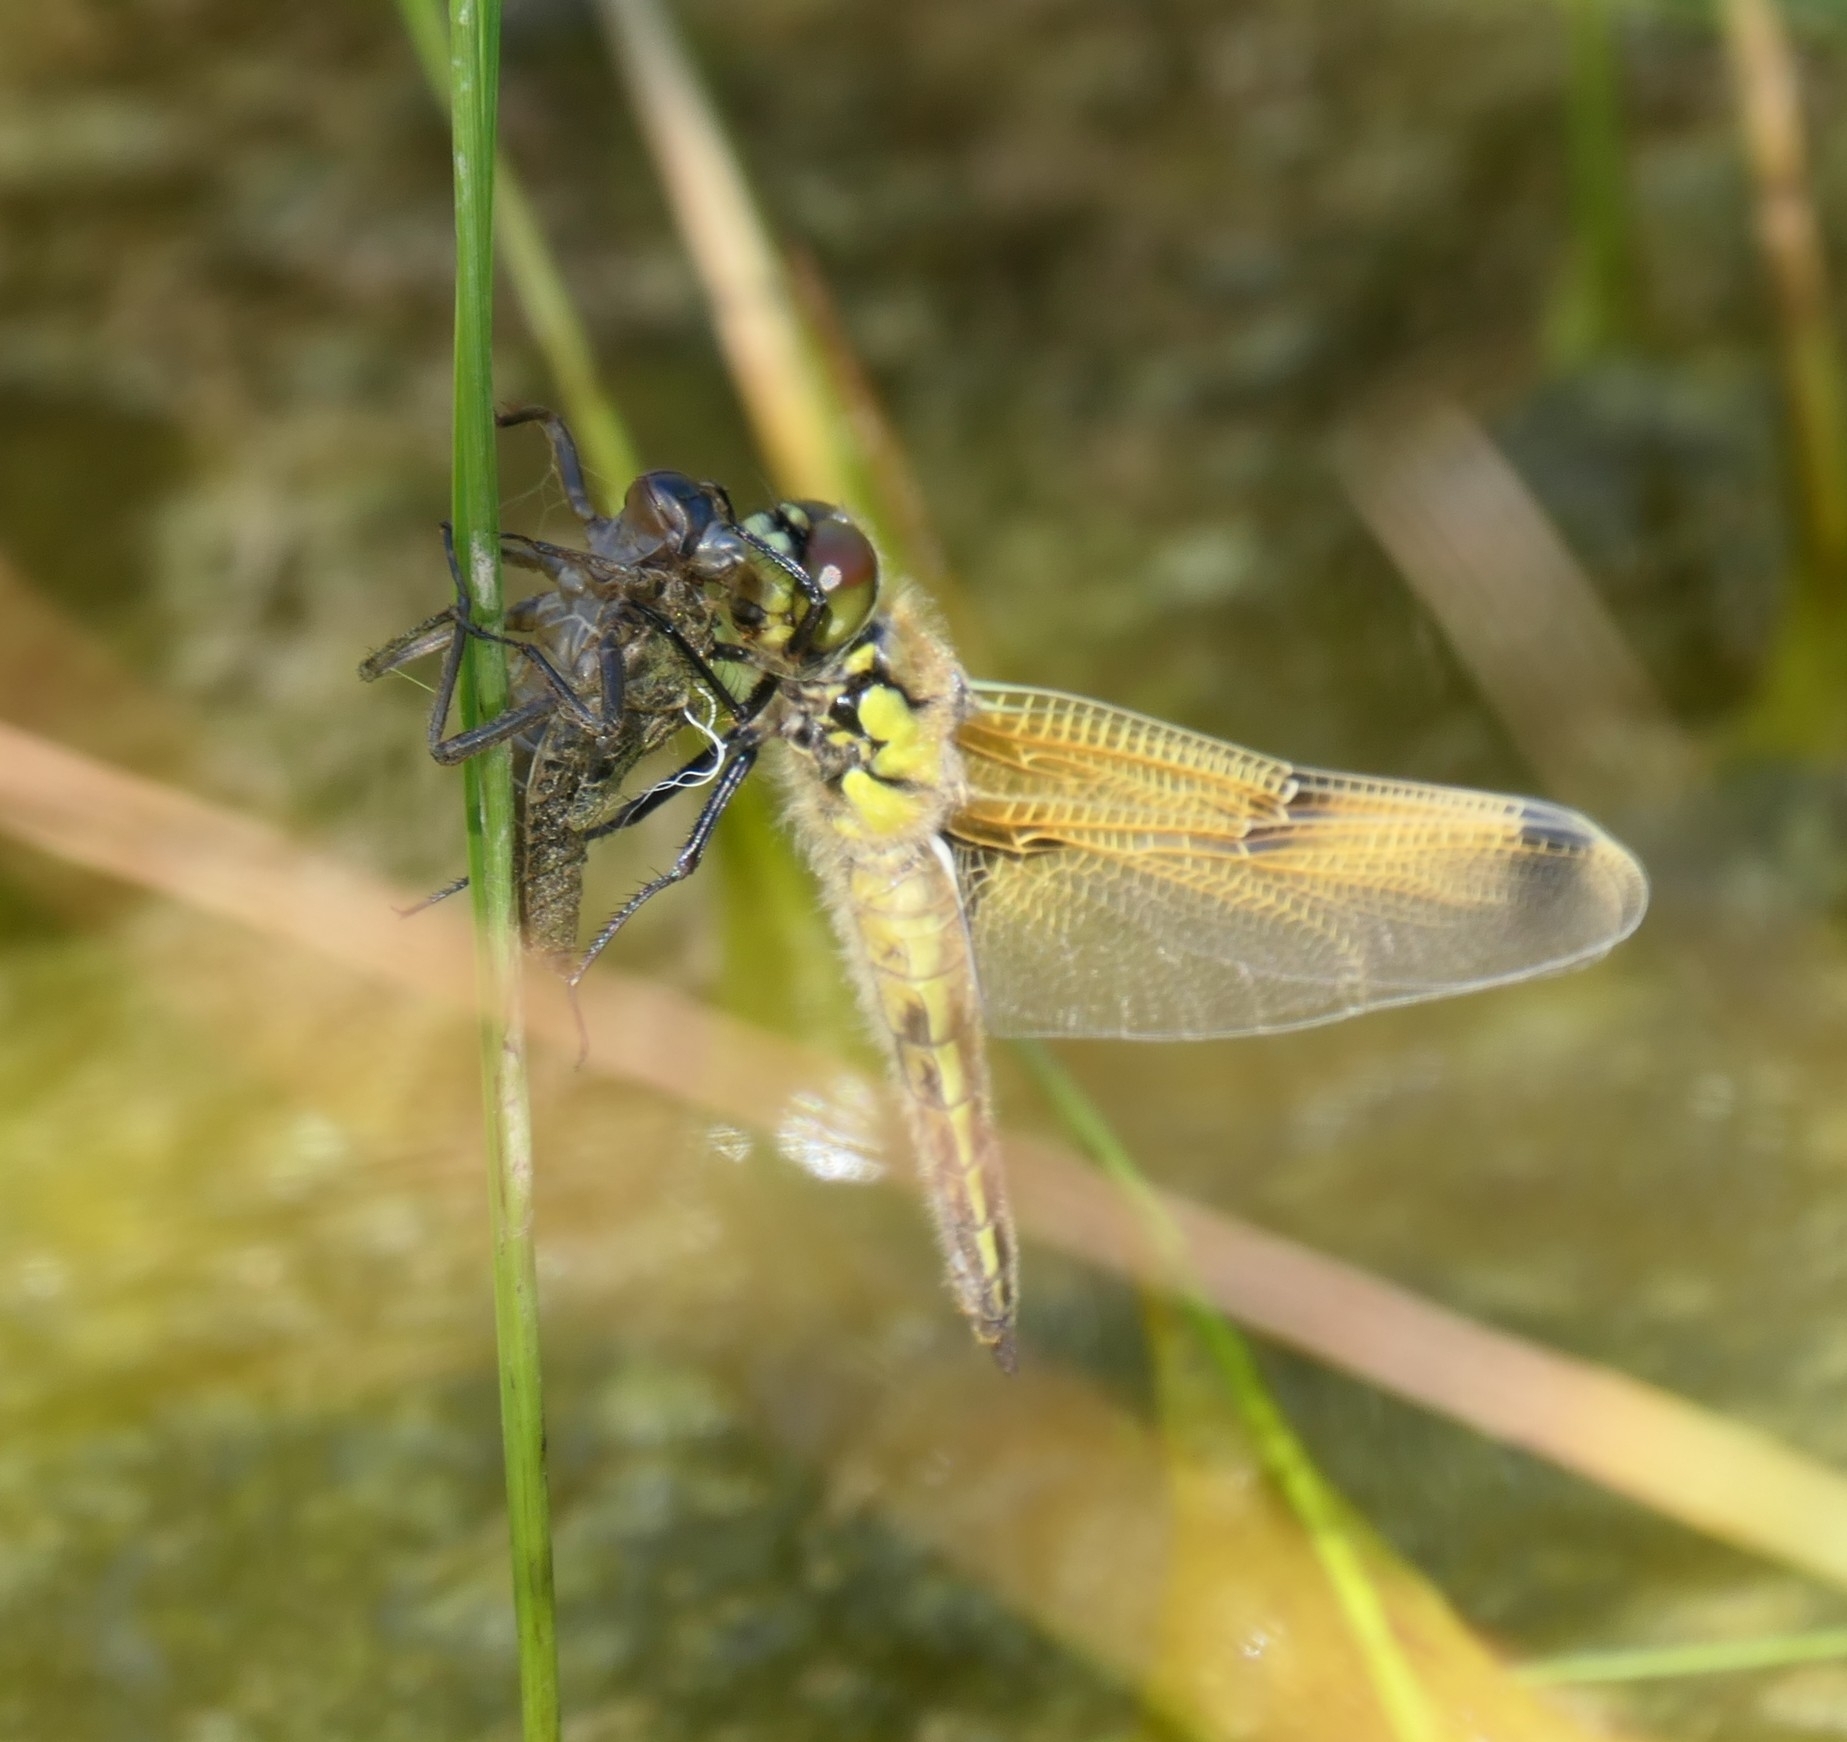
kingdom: Animalia
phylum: Arthropoda
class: Insecta
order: Odonata
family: Libellulidae
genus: Libellula
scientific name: Libellula quadrimaculata
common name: Four-spotted chaser
